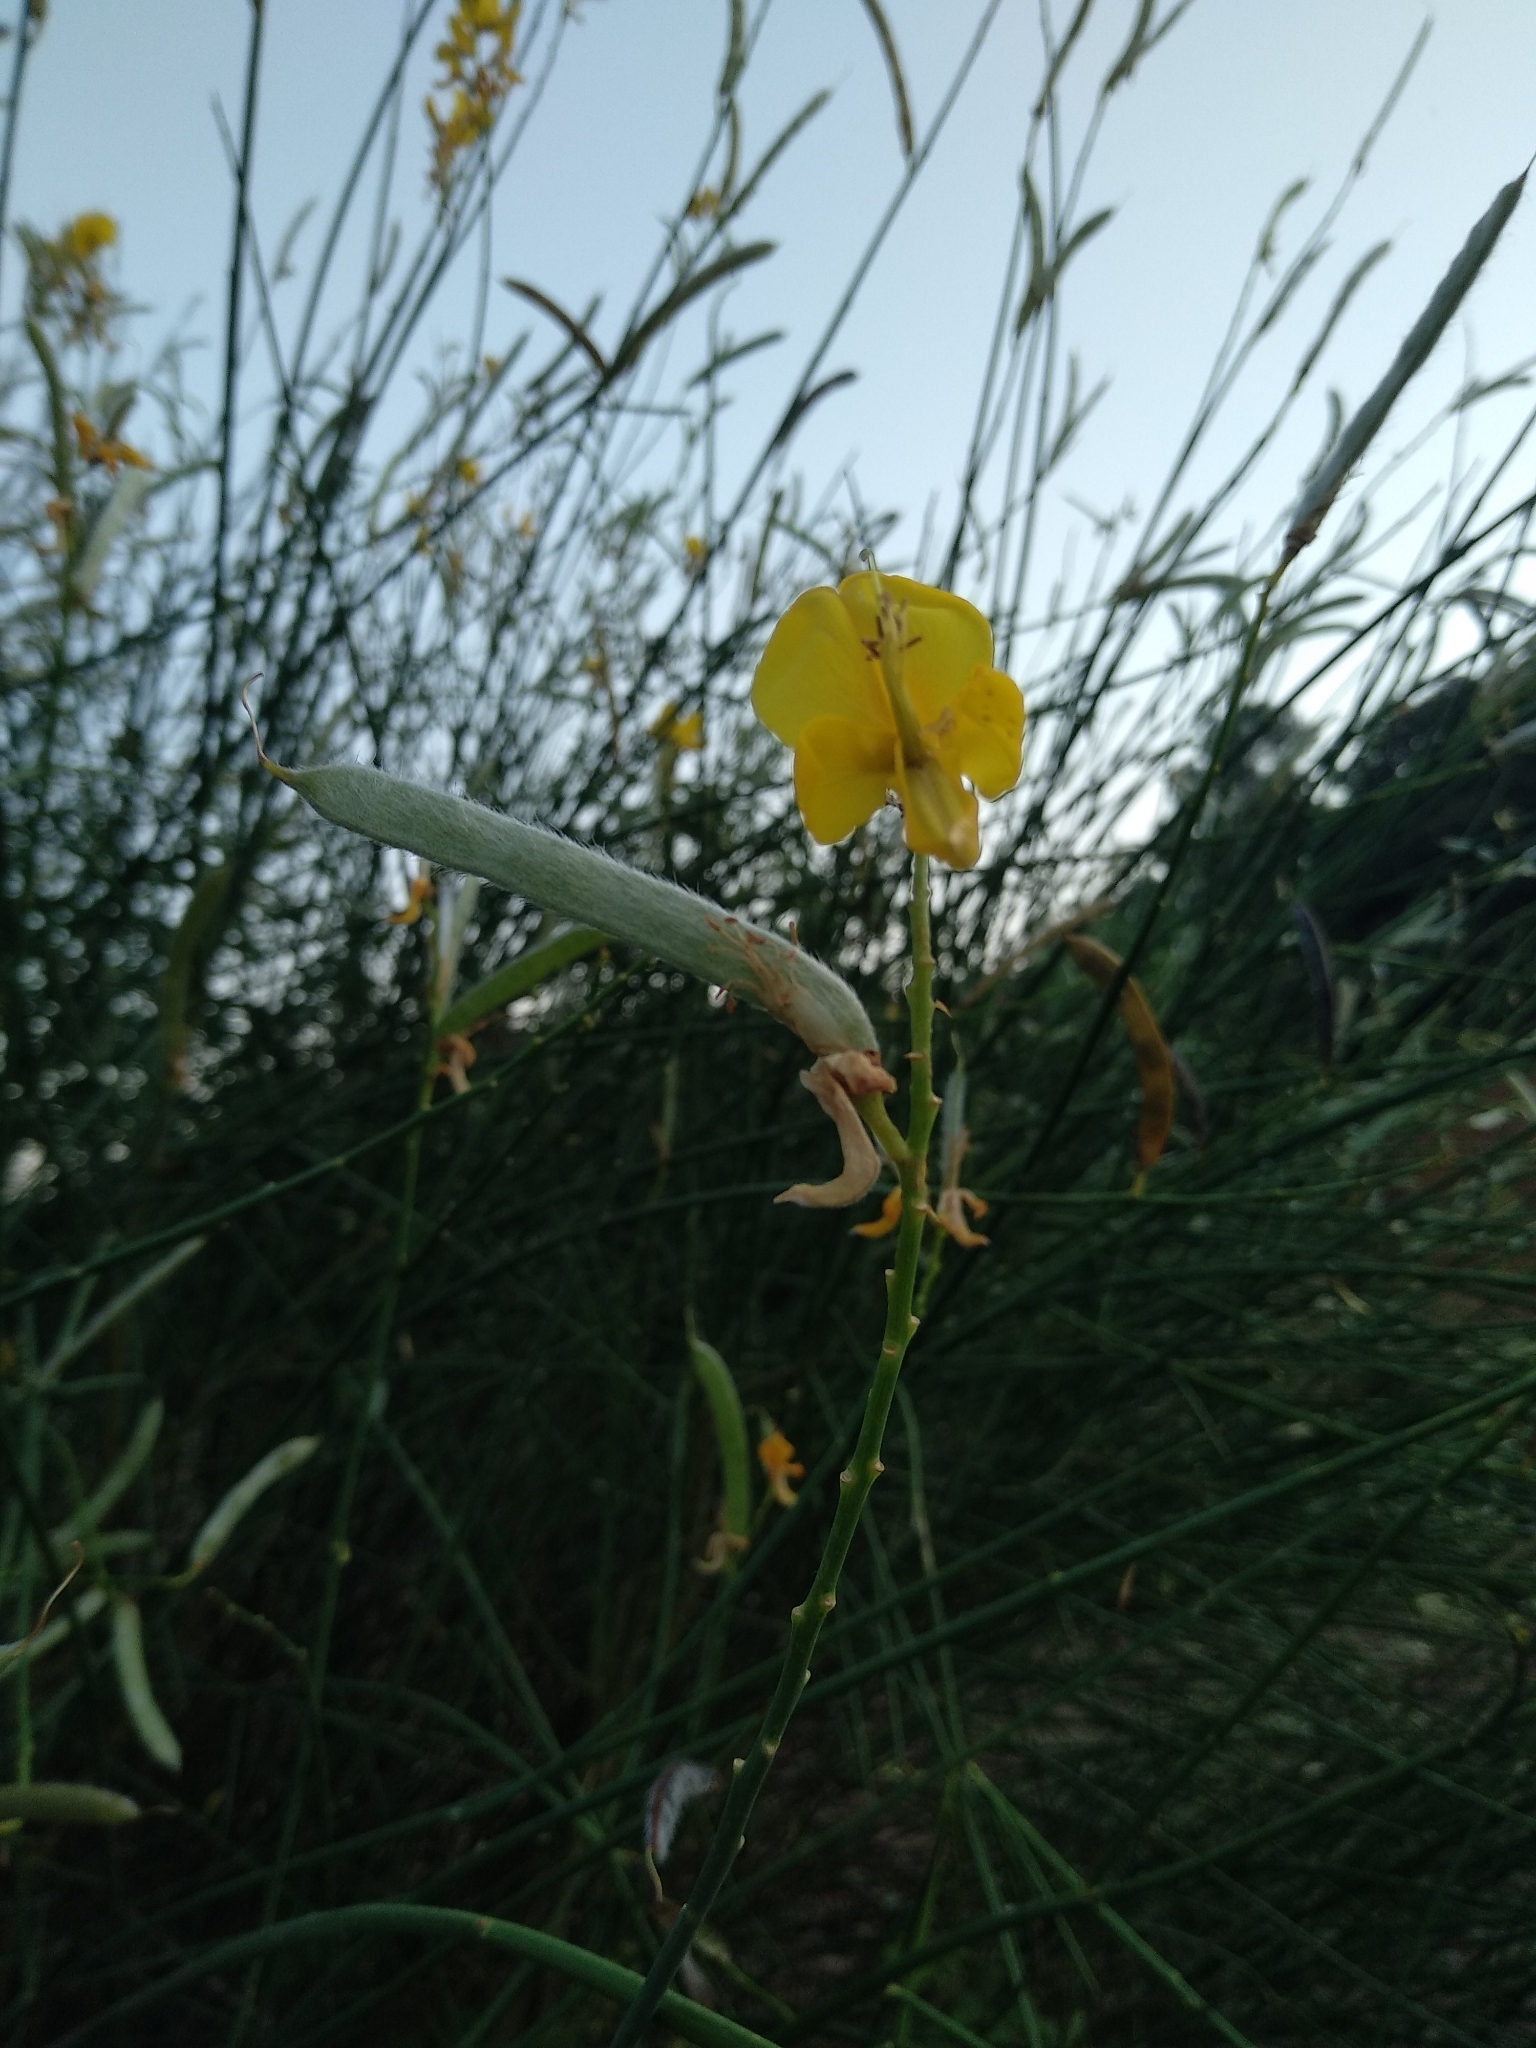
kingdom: Plantae
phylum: Tracheophyta
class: Magnoliopsida
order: Fabales
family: Fabaceae
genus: Spartium
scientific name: Spartium junceum
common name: Spanish broom
